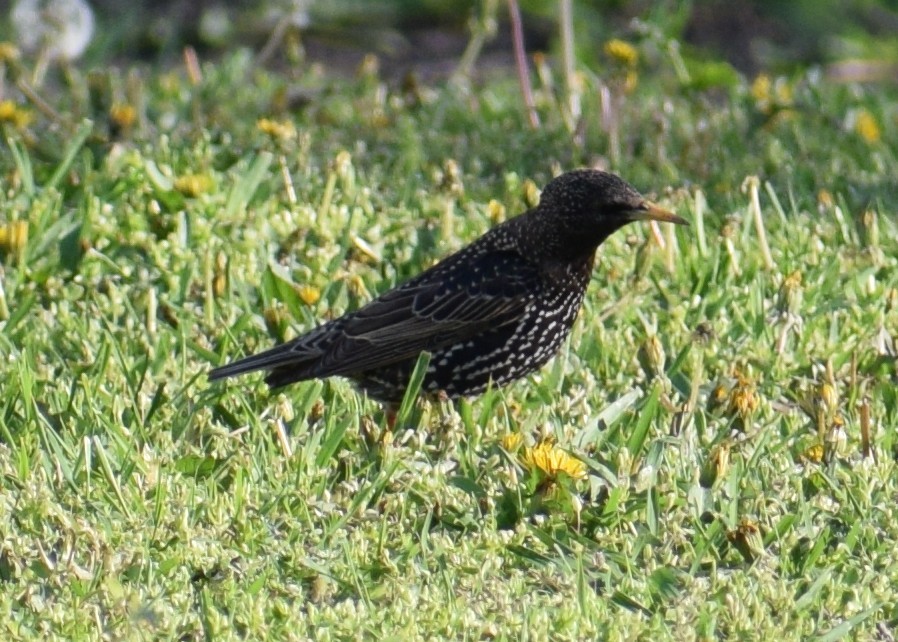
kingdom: Animalia
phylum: Chordata
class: Aves
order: Passeriformes
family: Sturnidae
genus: Sturnus
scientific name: Sturnus vulgaris
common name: Common starling
